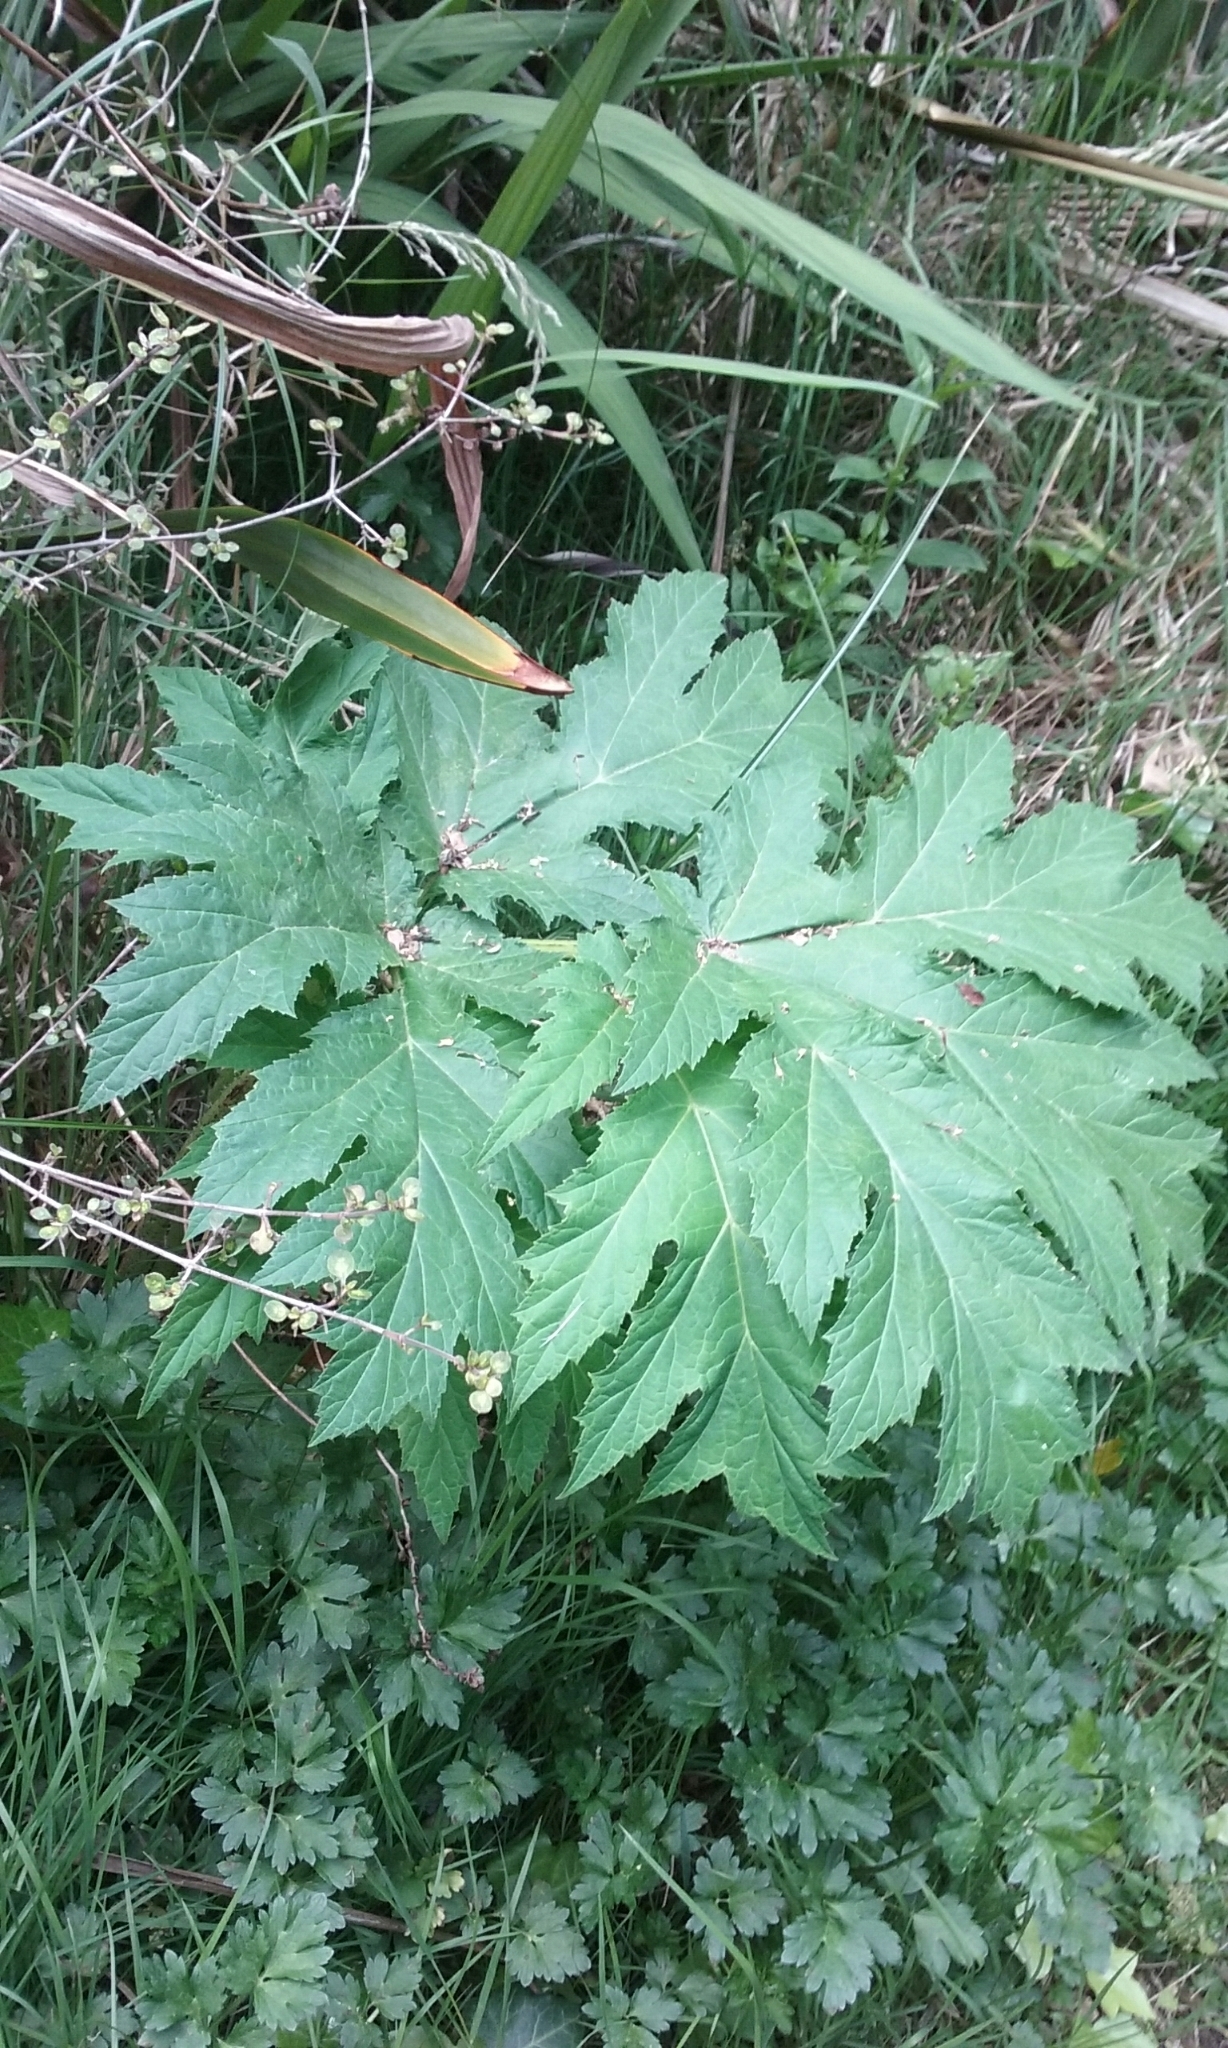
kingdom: Plantae
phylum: Tracheophyta
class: Magnoliopsida
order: Apiales
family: Apiaceae
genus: Heracleum
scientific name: Heracleum mantegazzianum
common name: Giant hogweed
